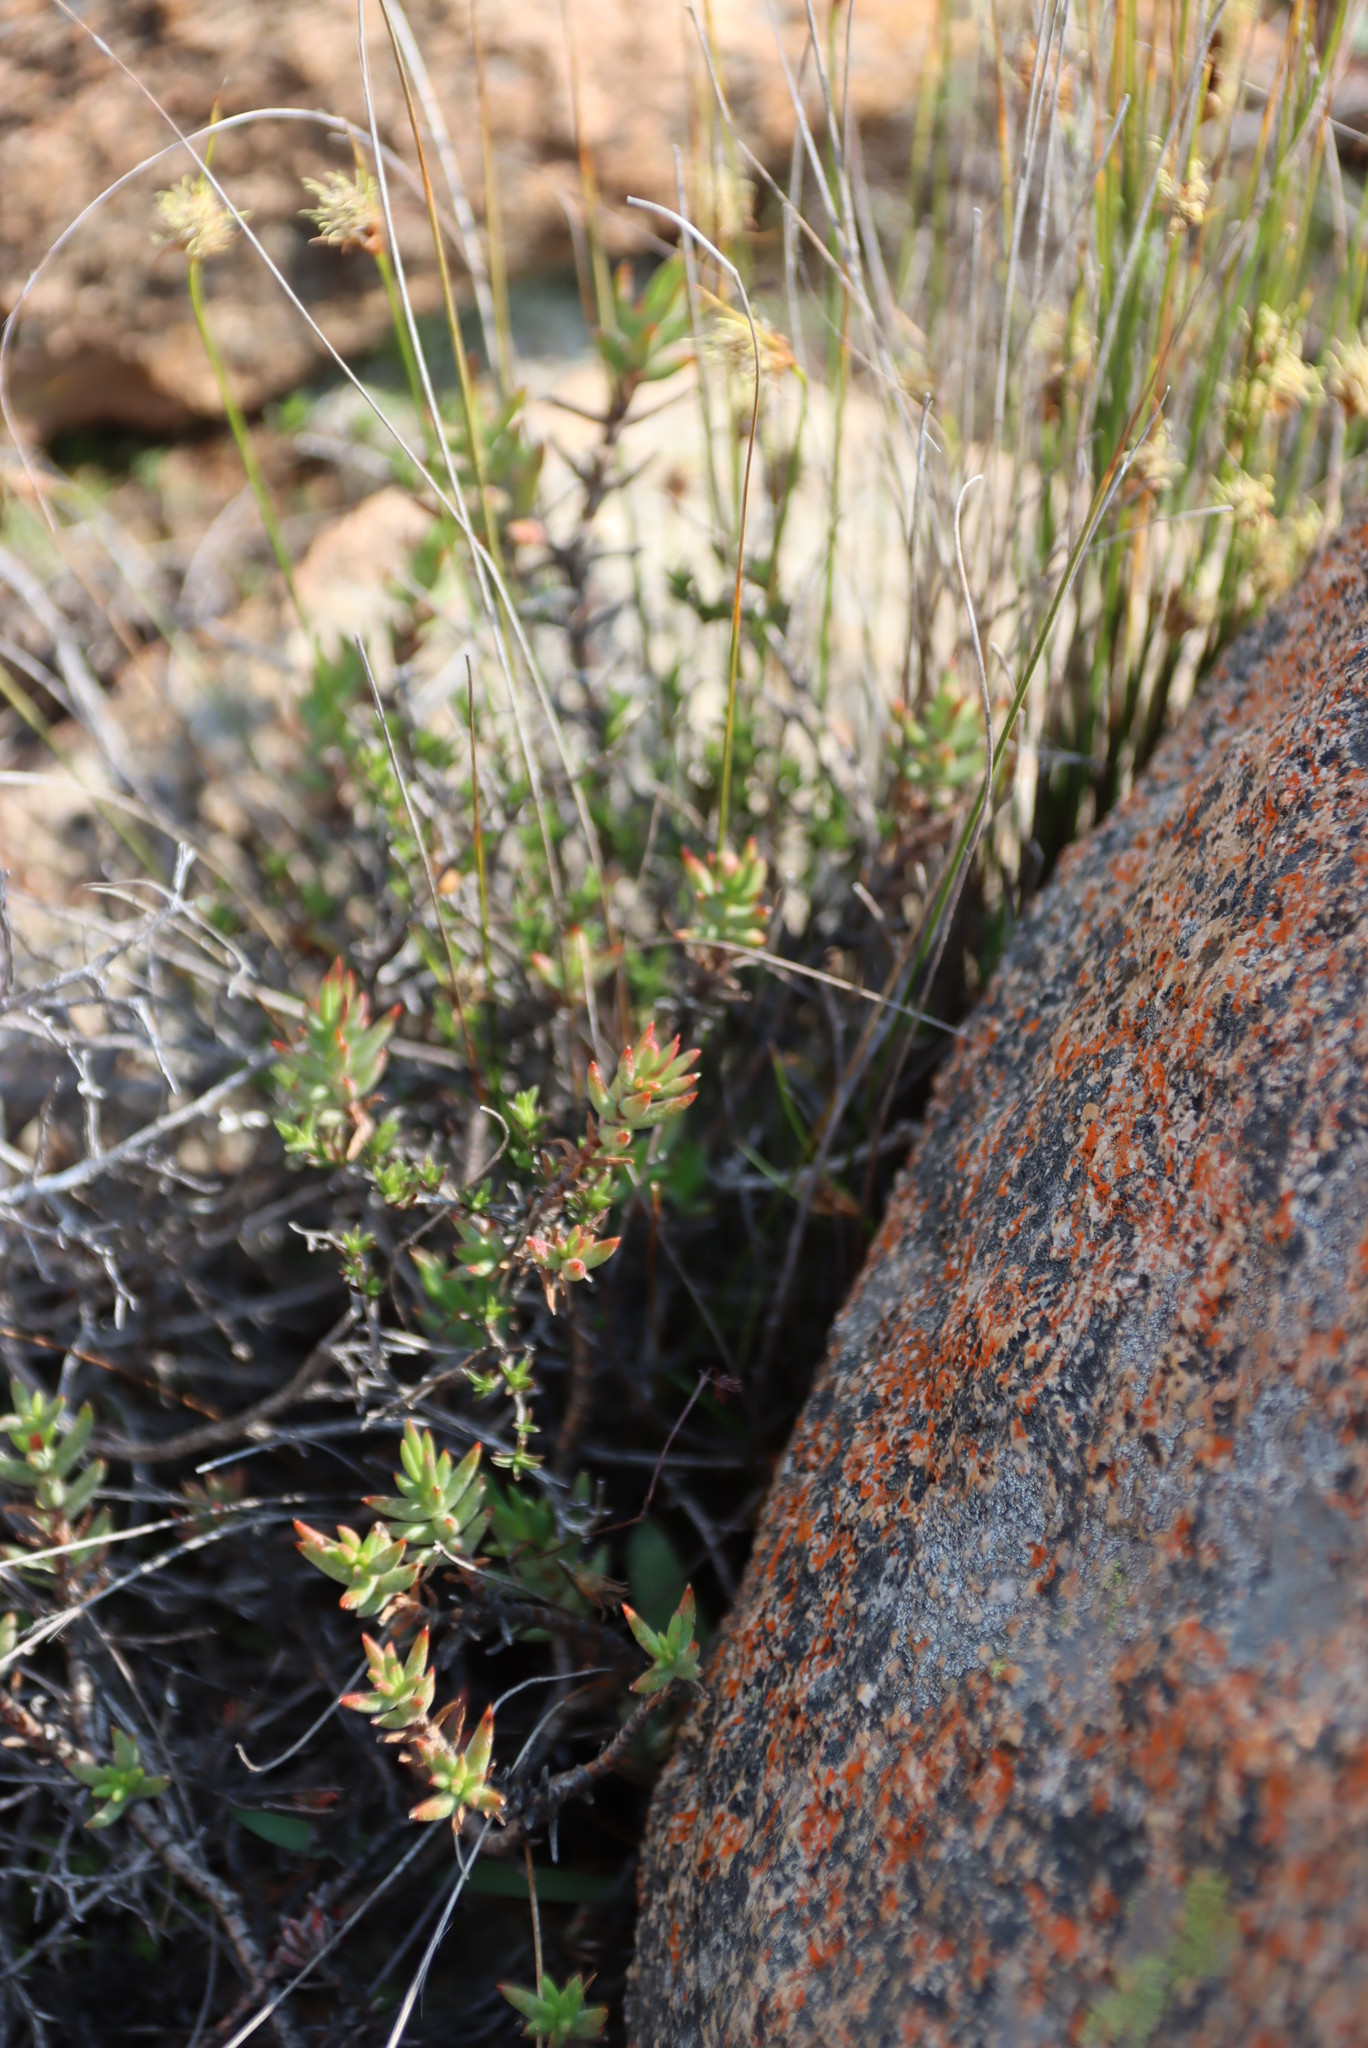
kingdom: Plantae
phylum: Tracheophyta
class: Magnoliopsida
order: Saxifragales
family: Crassulaceae
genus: Crassula
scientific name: Crassula tetragona
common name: Pygmyweed
